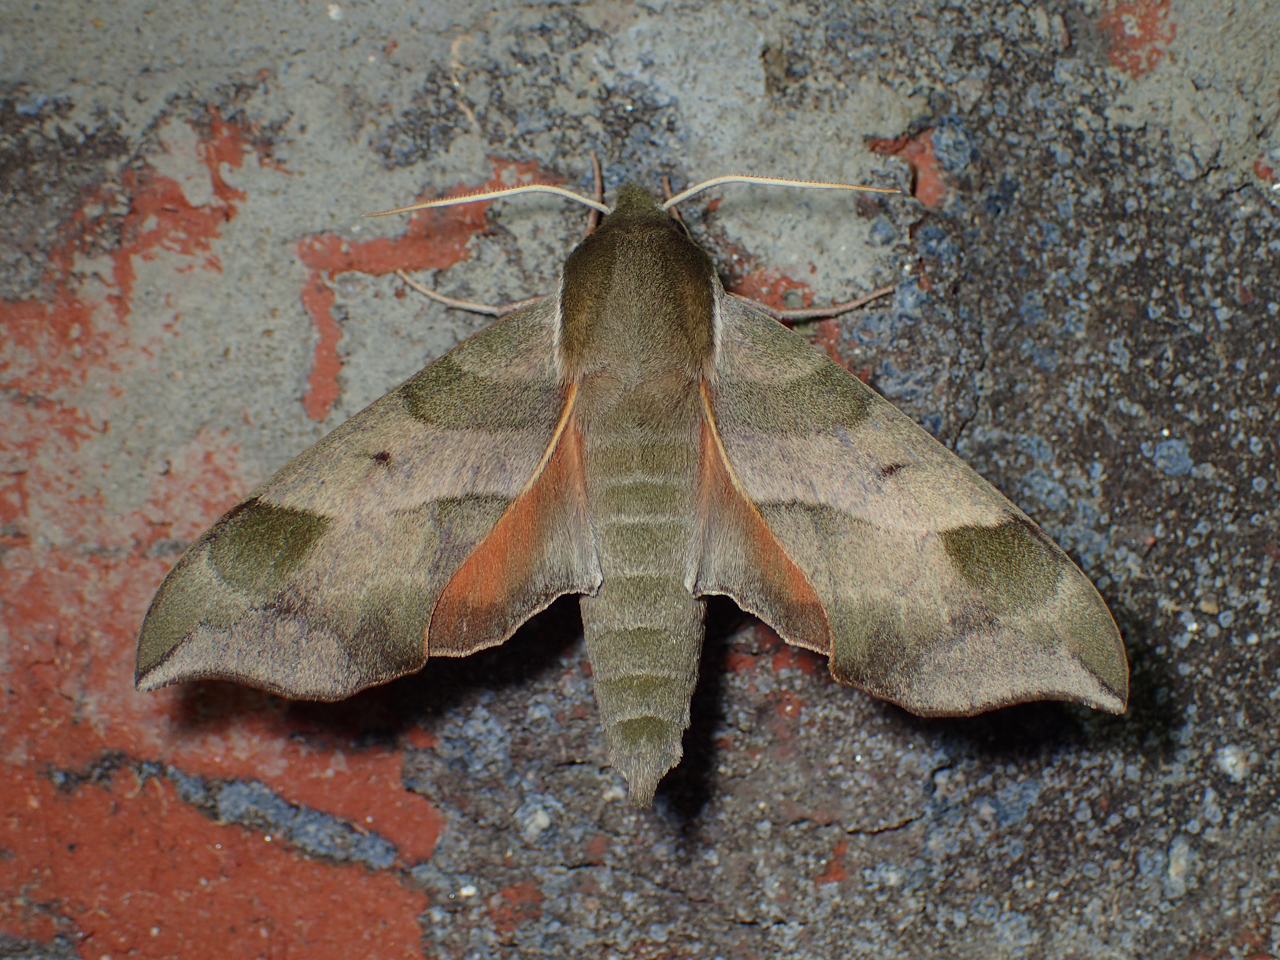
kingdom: Animalia
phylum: Arthropoda
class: Insecta
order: Lepidoptera
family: Sphingidae
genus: Darapsa
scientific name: Darapsa myron
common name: Hog sphinx
